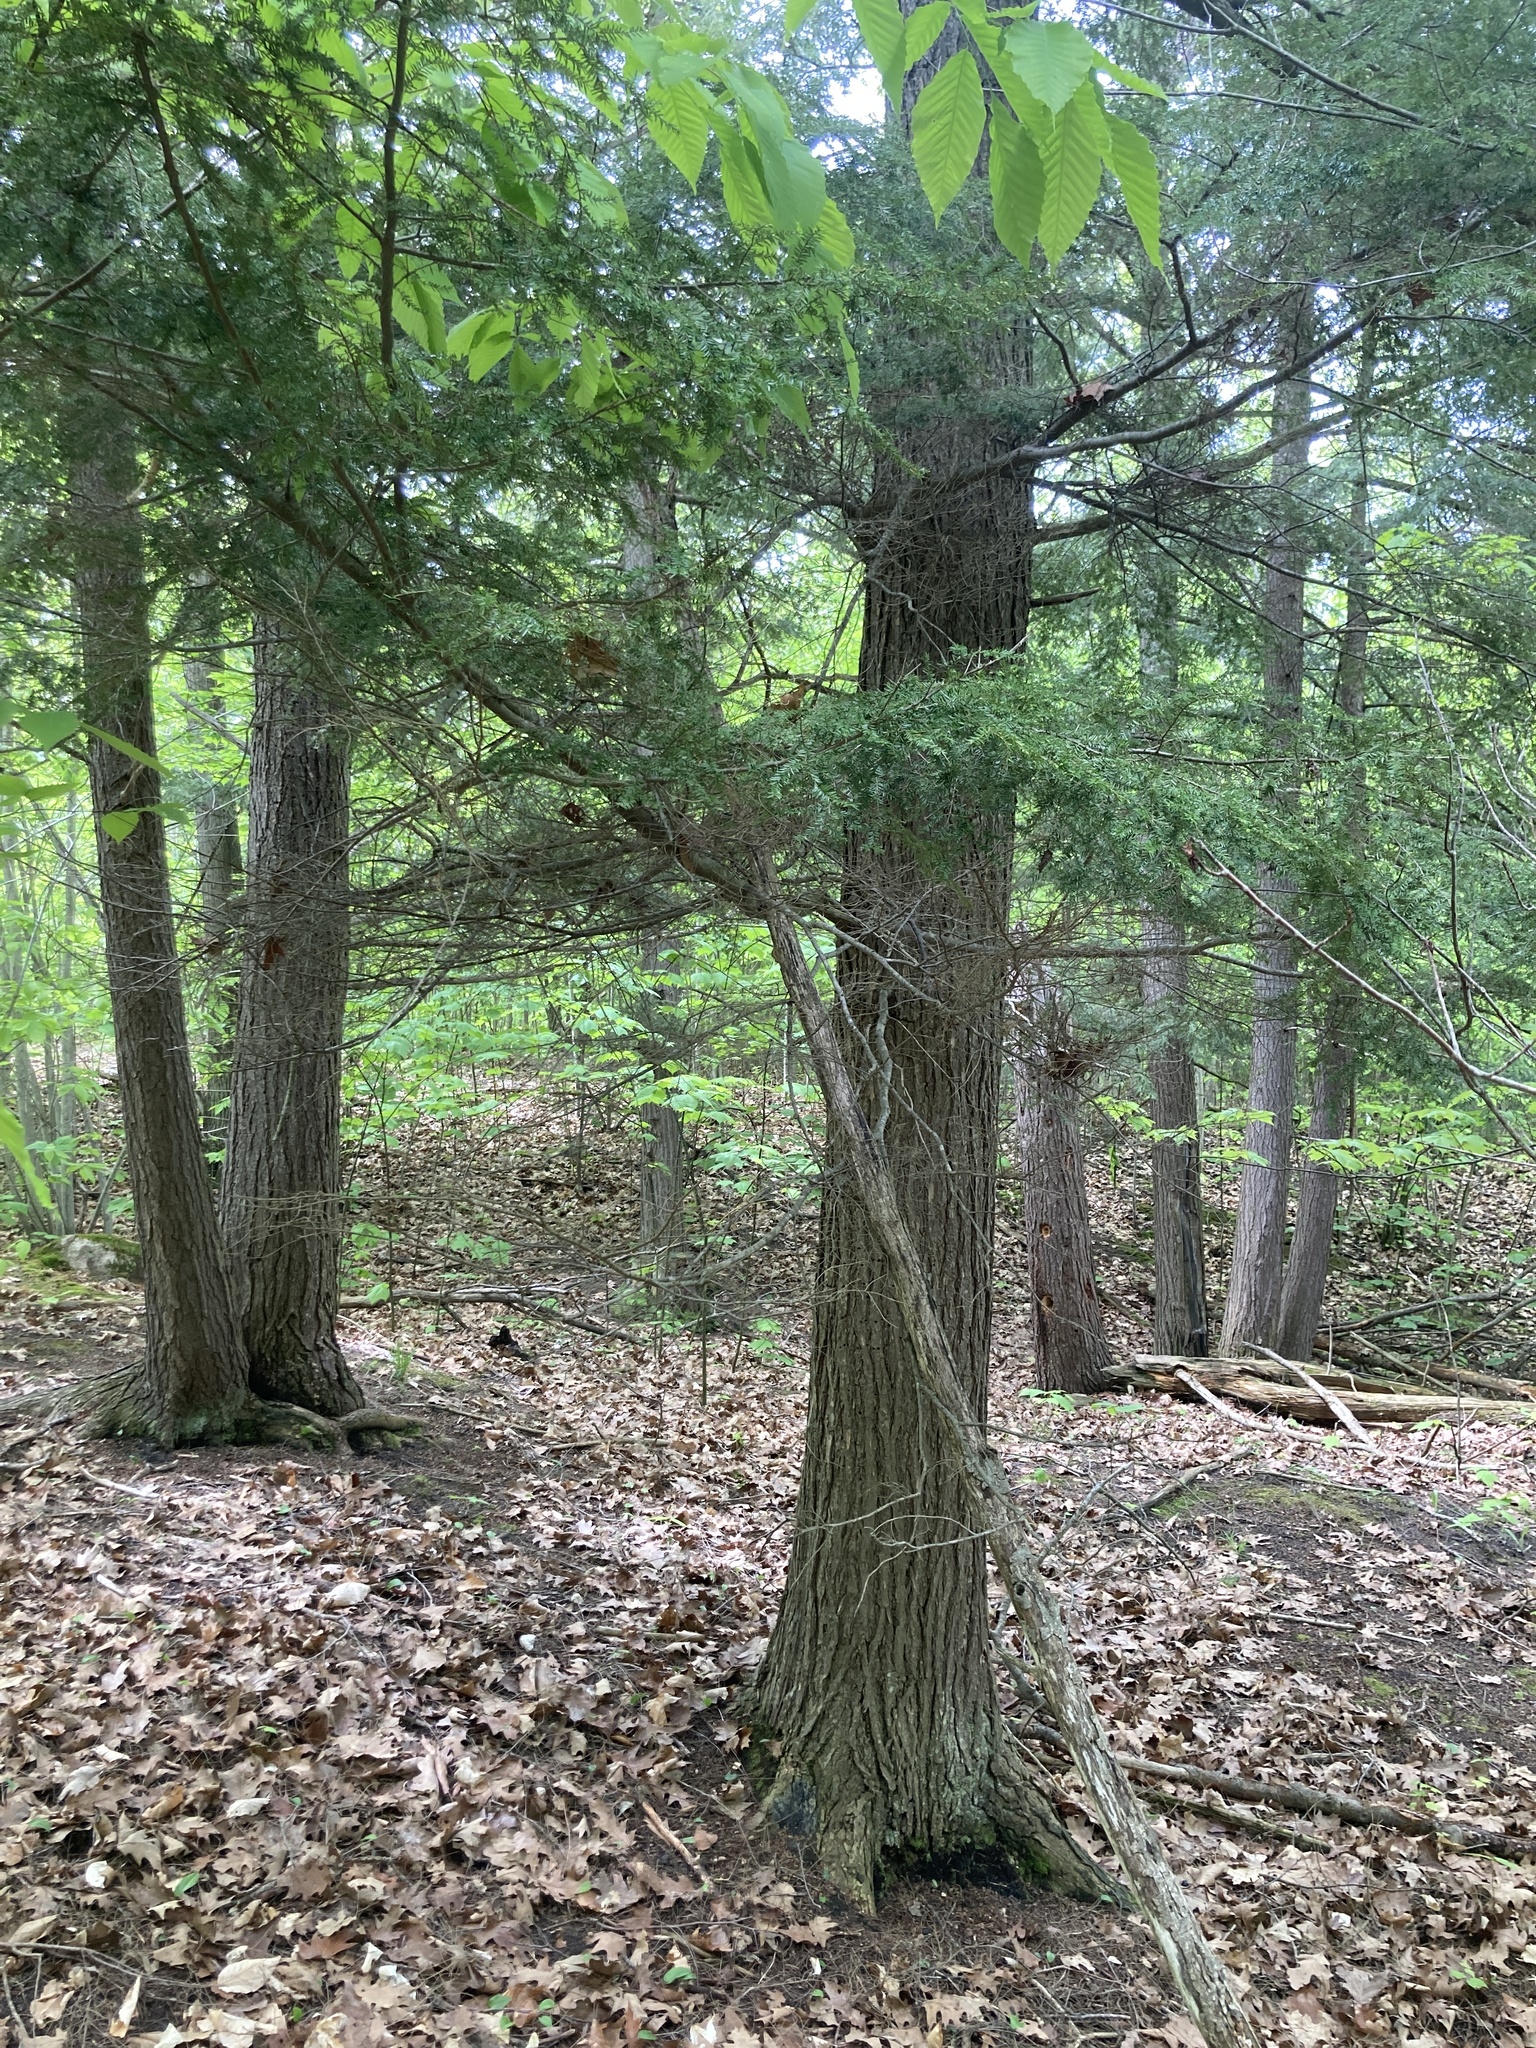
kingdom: Plantae
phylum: Tracheophyta
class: Pinopsida
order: Pinales
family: Pinaceae
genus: Tsuga
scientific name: Tsuga canadensis
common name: Eastern hemlock
